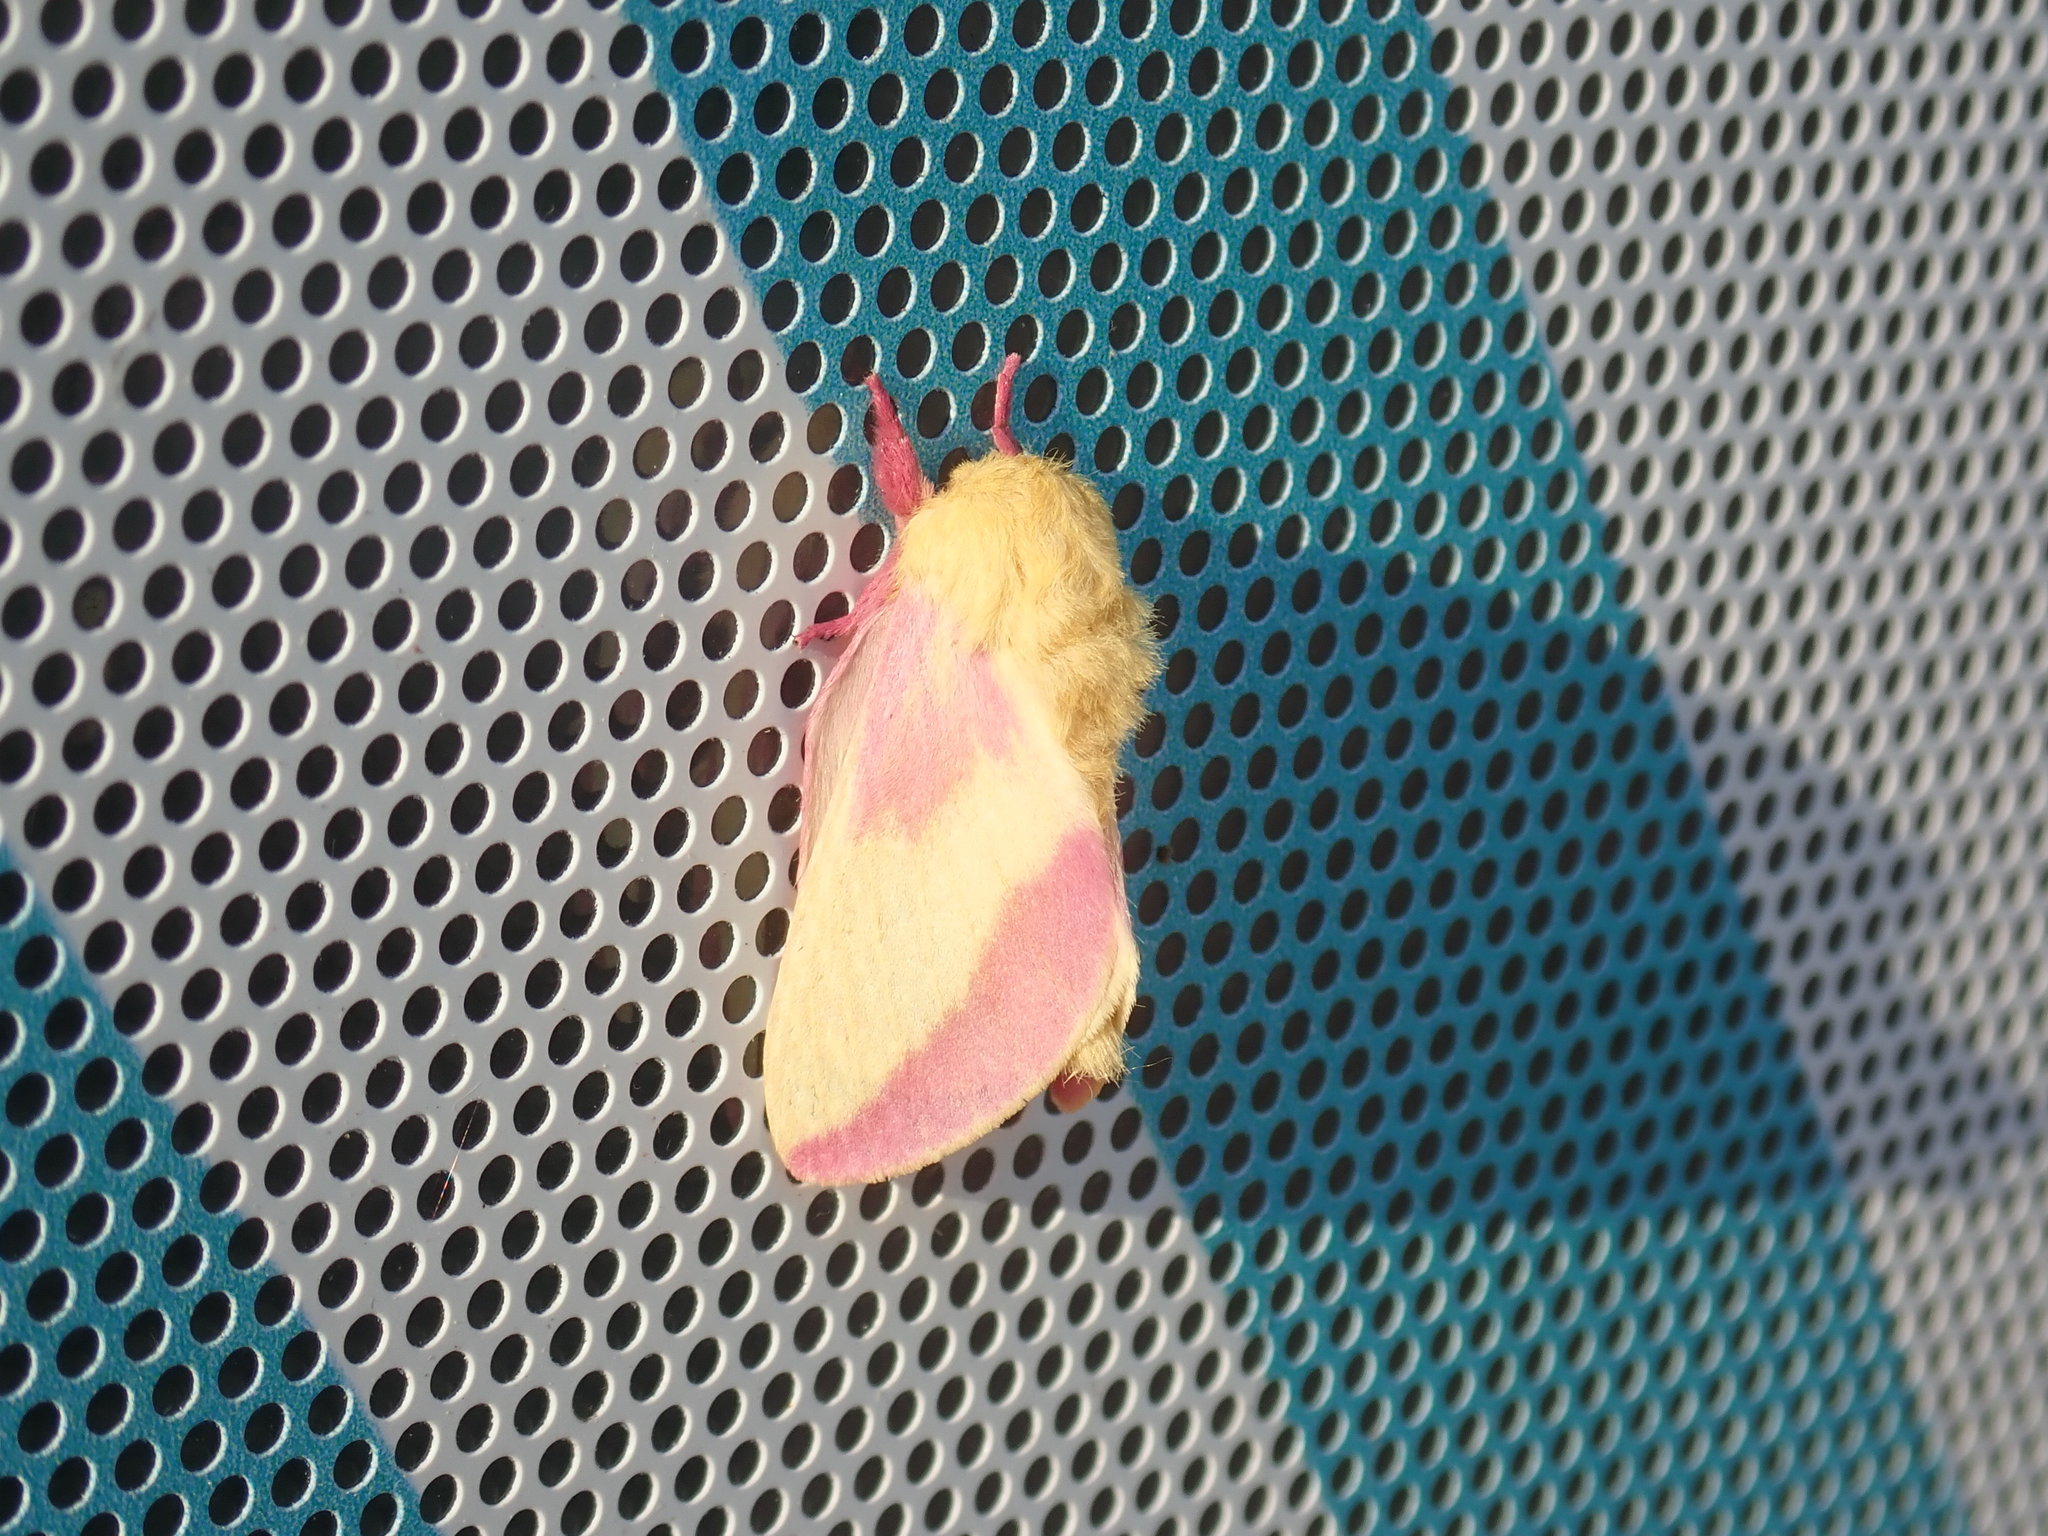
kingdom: Animalia
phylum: Arthropoda
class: Insecta
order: Lepidoptera
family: Saturniidae
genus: Dryocampa
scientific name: Dryocampa rubicunda
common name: Rosy maple moth
